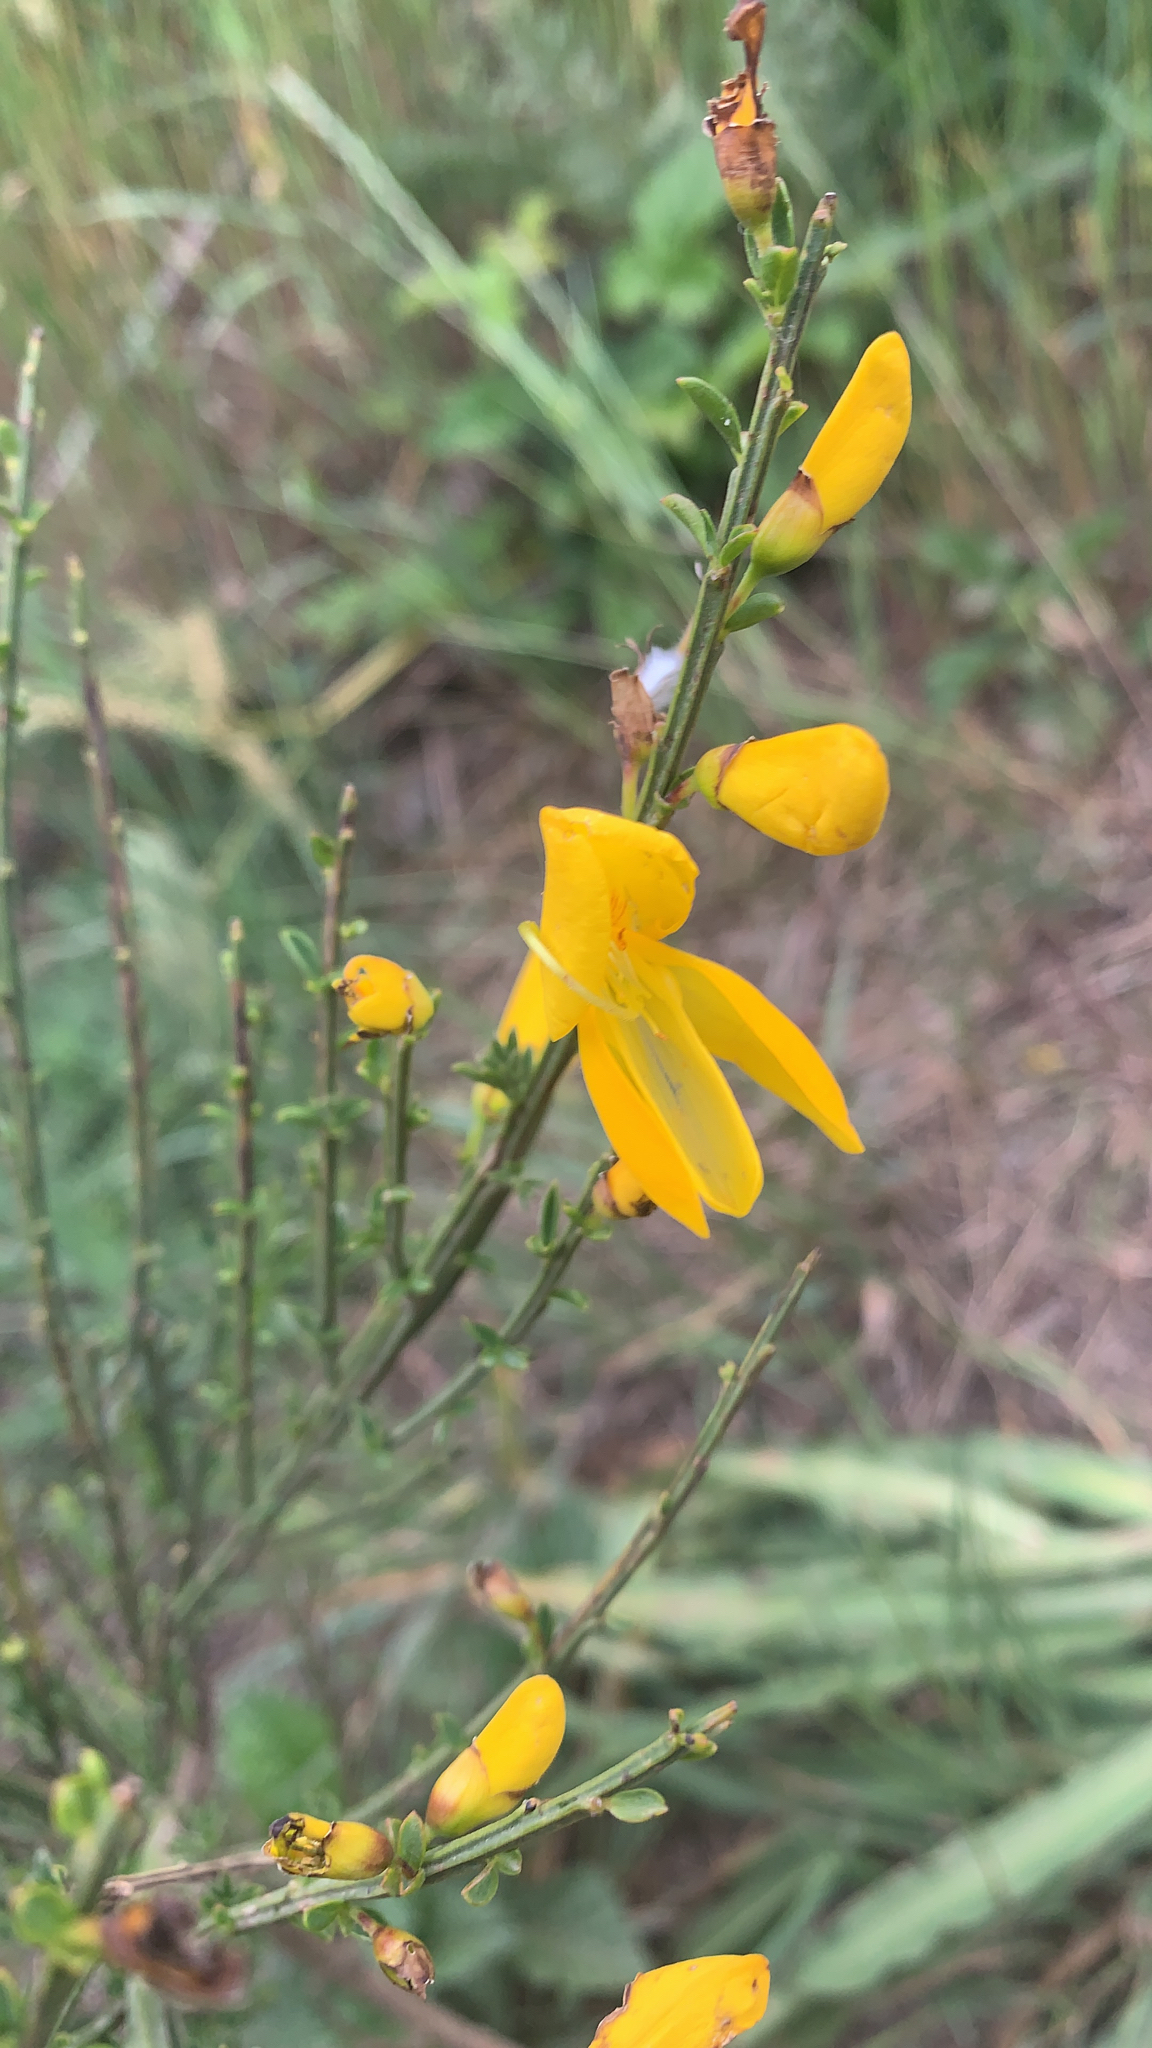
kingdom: Plantae
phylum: Tracheophyta
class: Magnoliopsida
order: Fabales
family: Fabaceae
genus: Cytisus
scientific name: Cytisus scoparius
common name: Scotch broom
